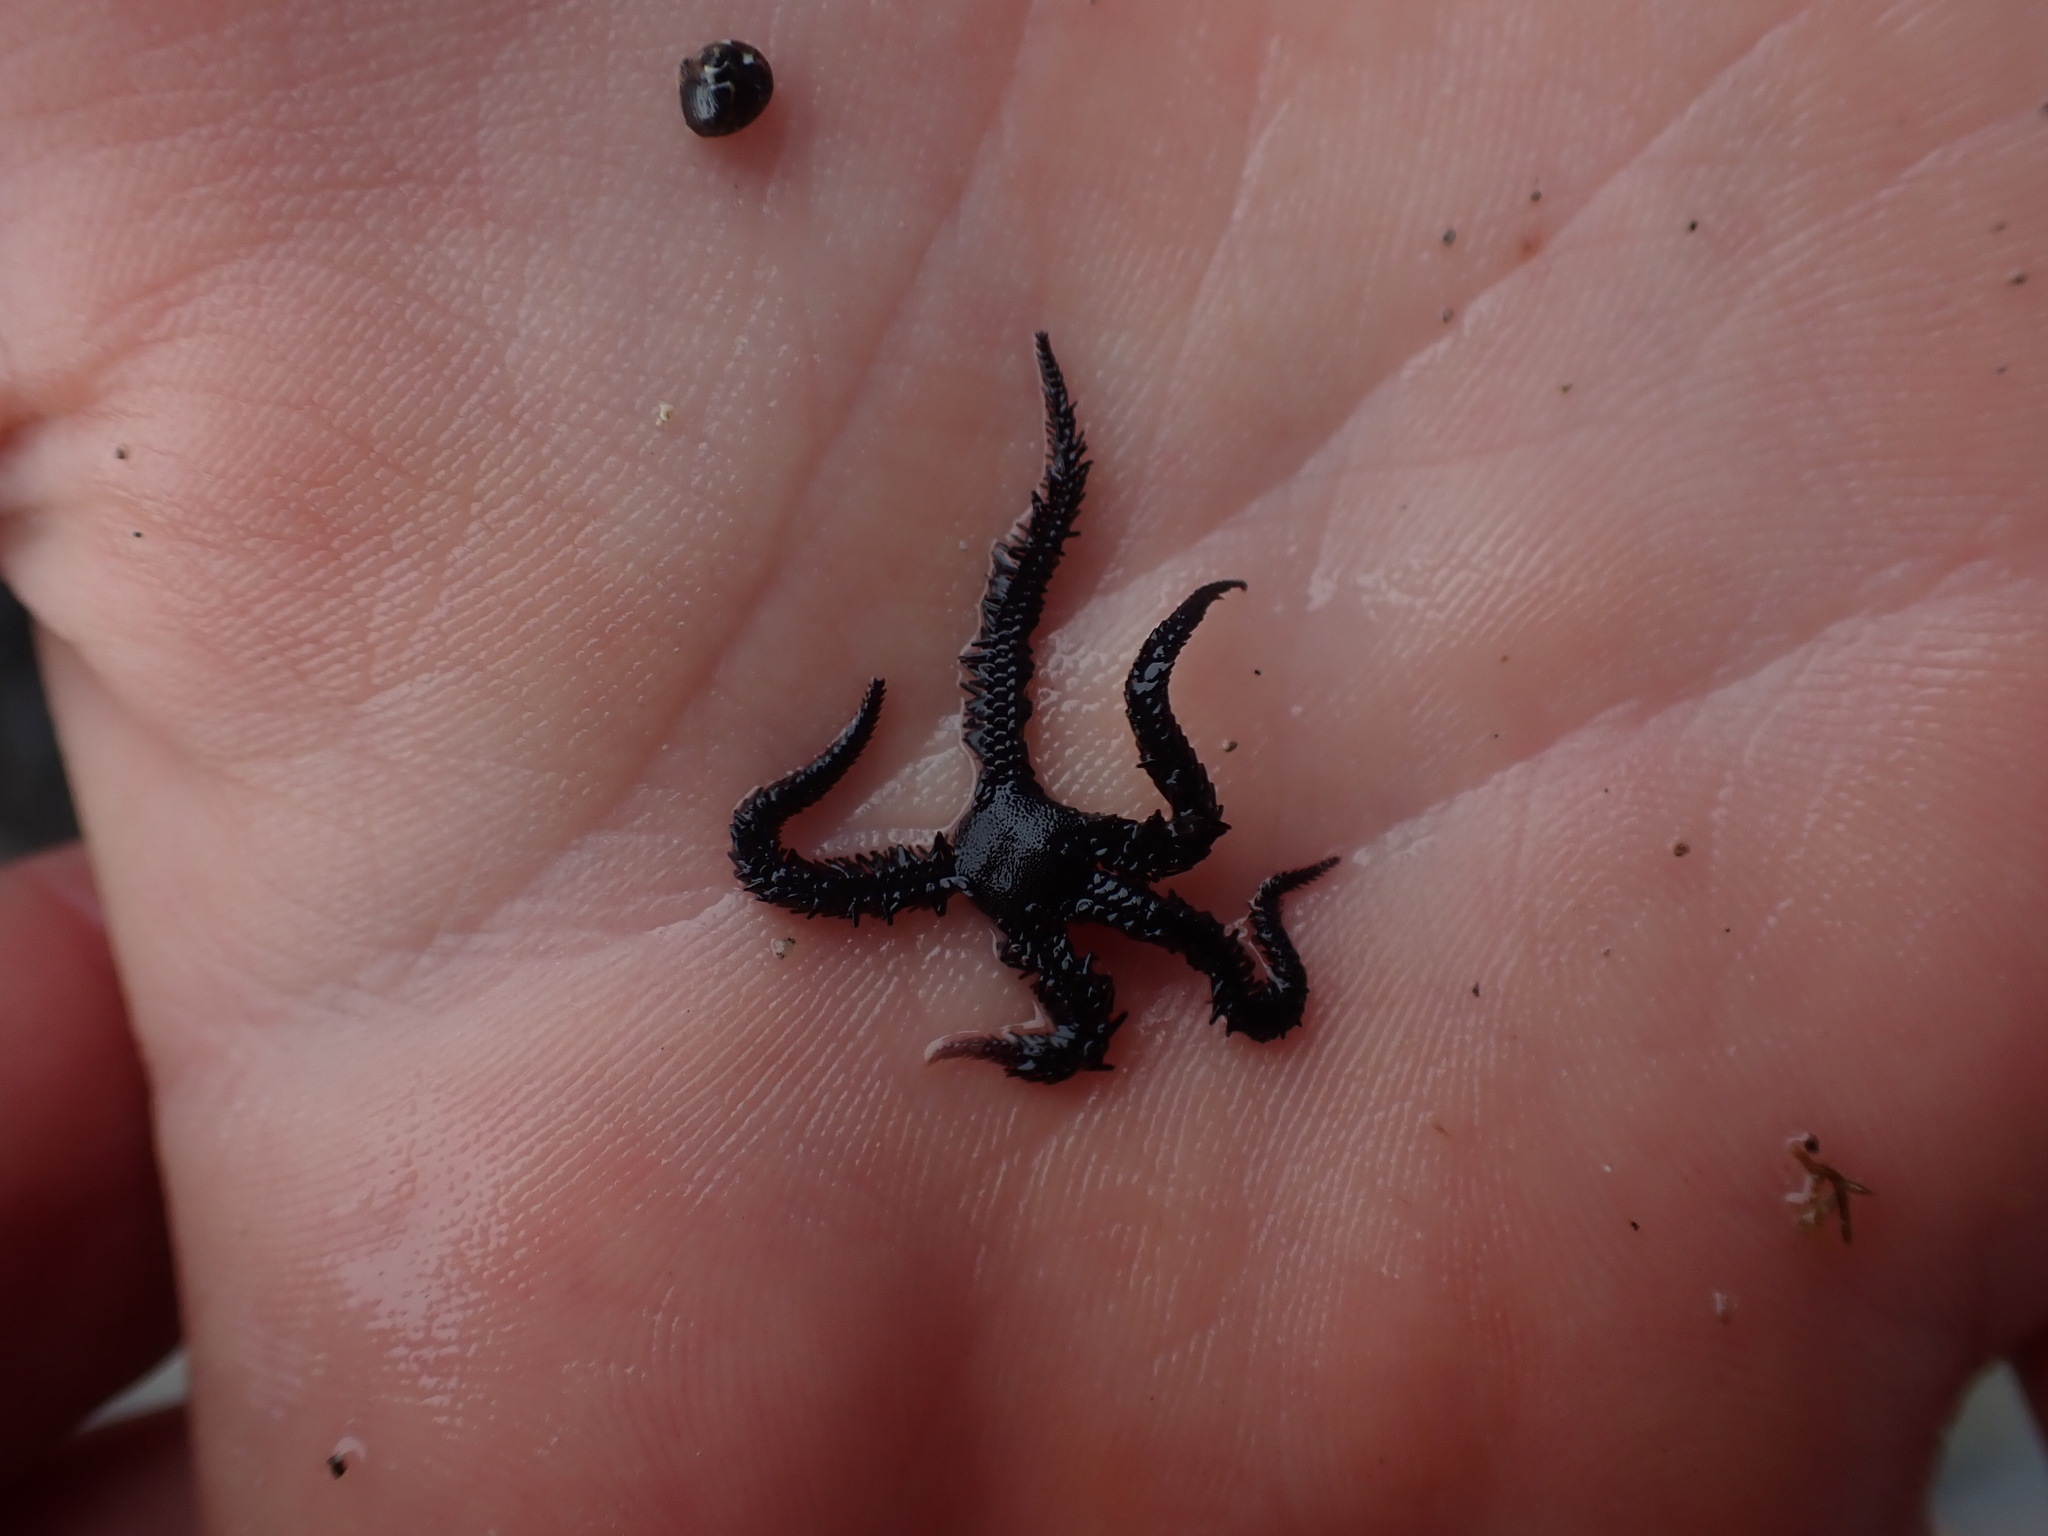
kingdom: Animalia
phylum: Echinodermata
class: Ophiuroidea
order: Ophiacanthida
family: Ophiopteridae
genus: Ophiopteris
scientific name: Ophiopteris antipodum
